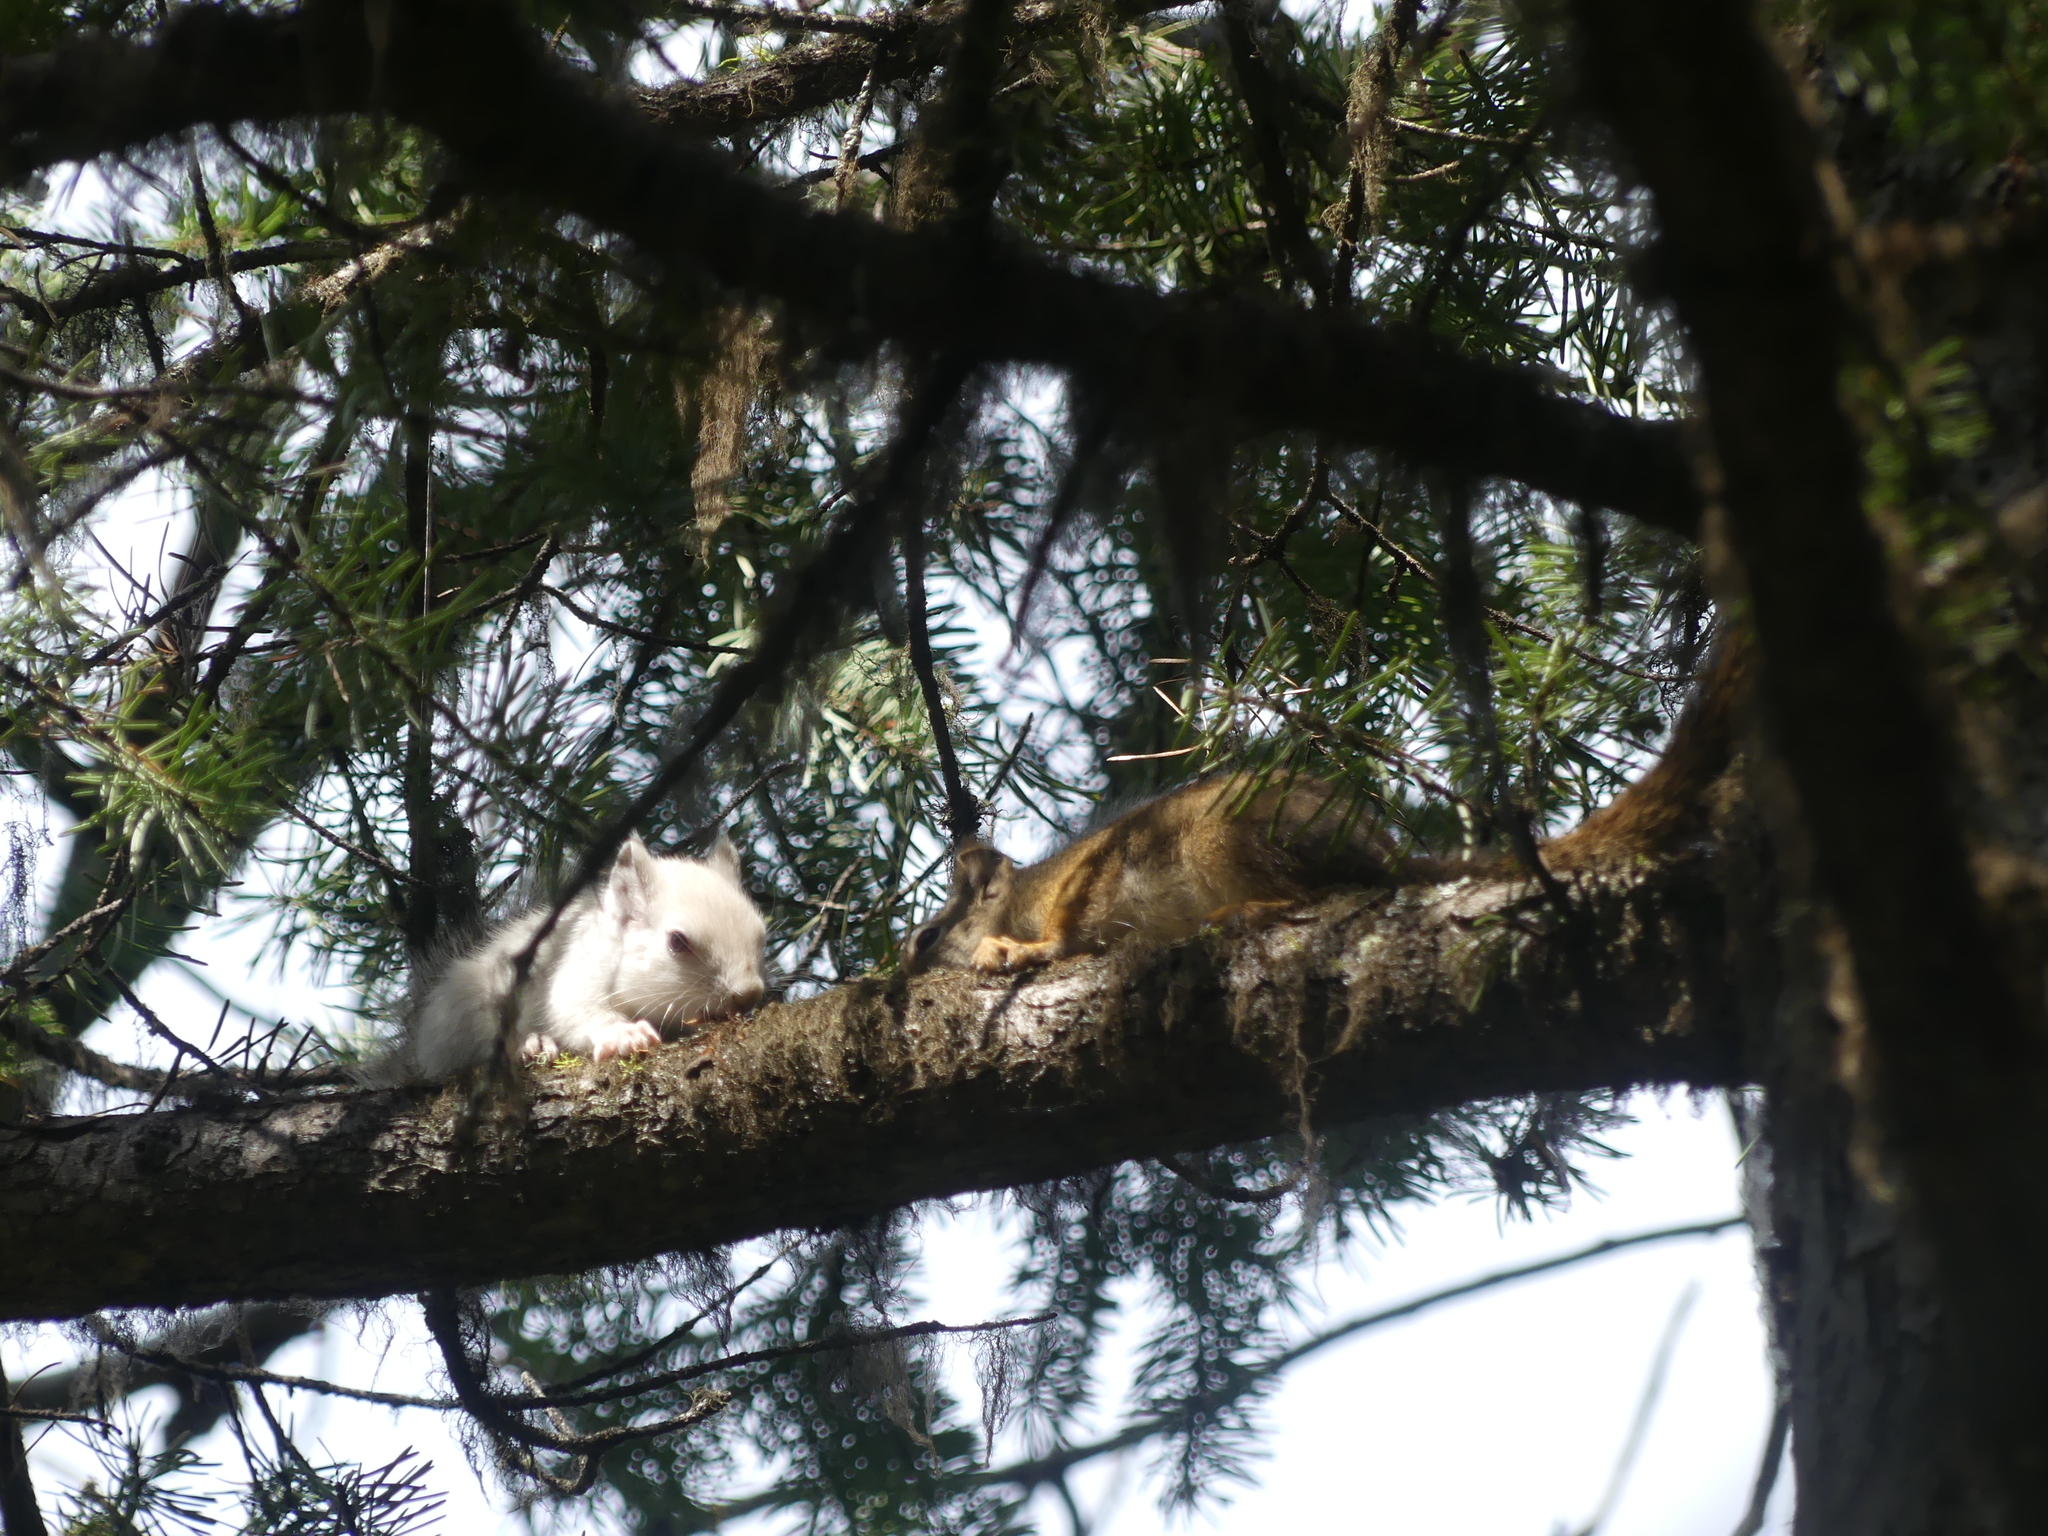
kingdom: Animalia
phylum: Chordata
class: Mammalia
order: Rodentia
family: Sciuridae
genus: Tamiasciurus
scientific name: Tamiasciurus hudsonicus
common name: Red squirrel
